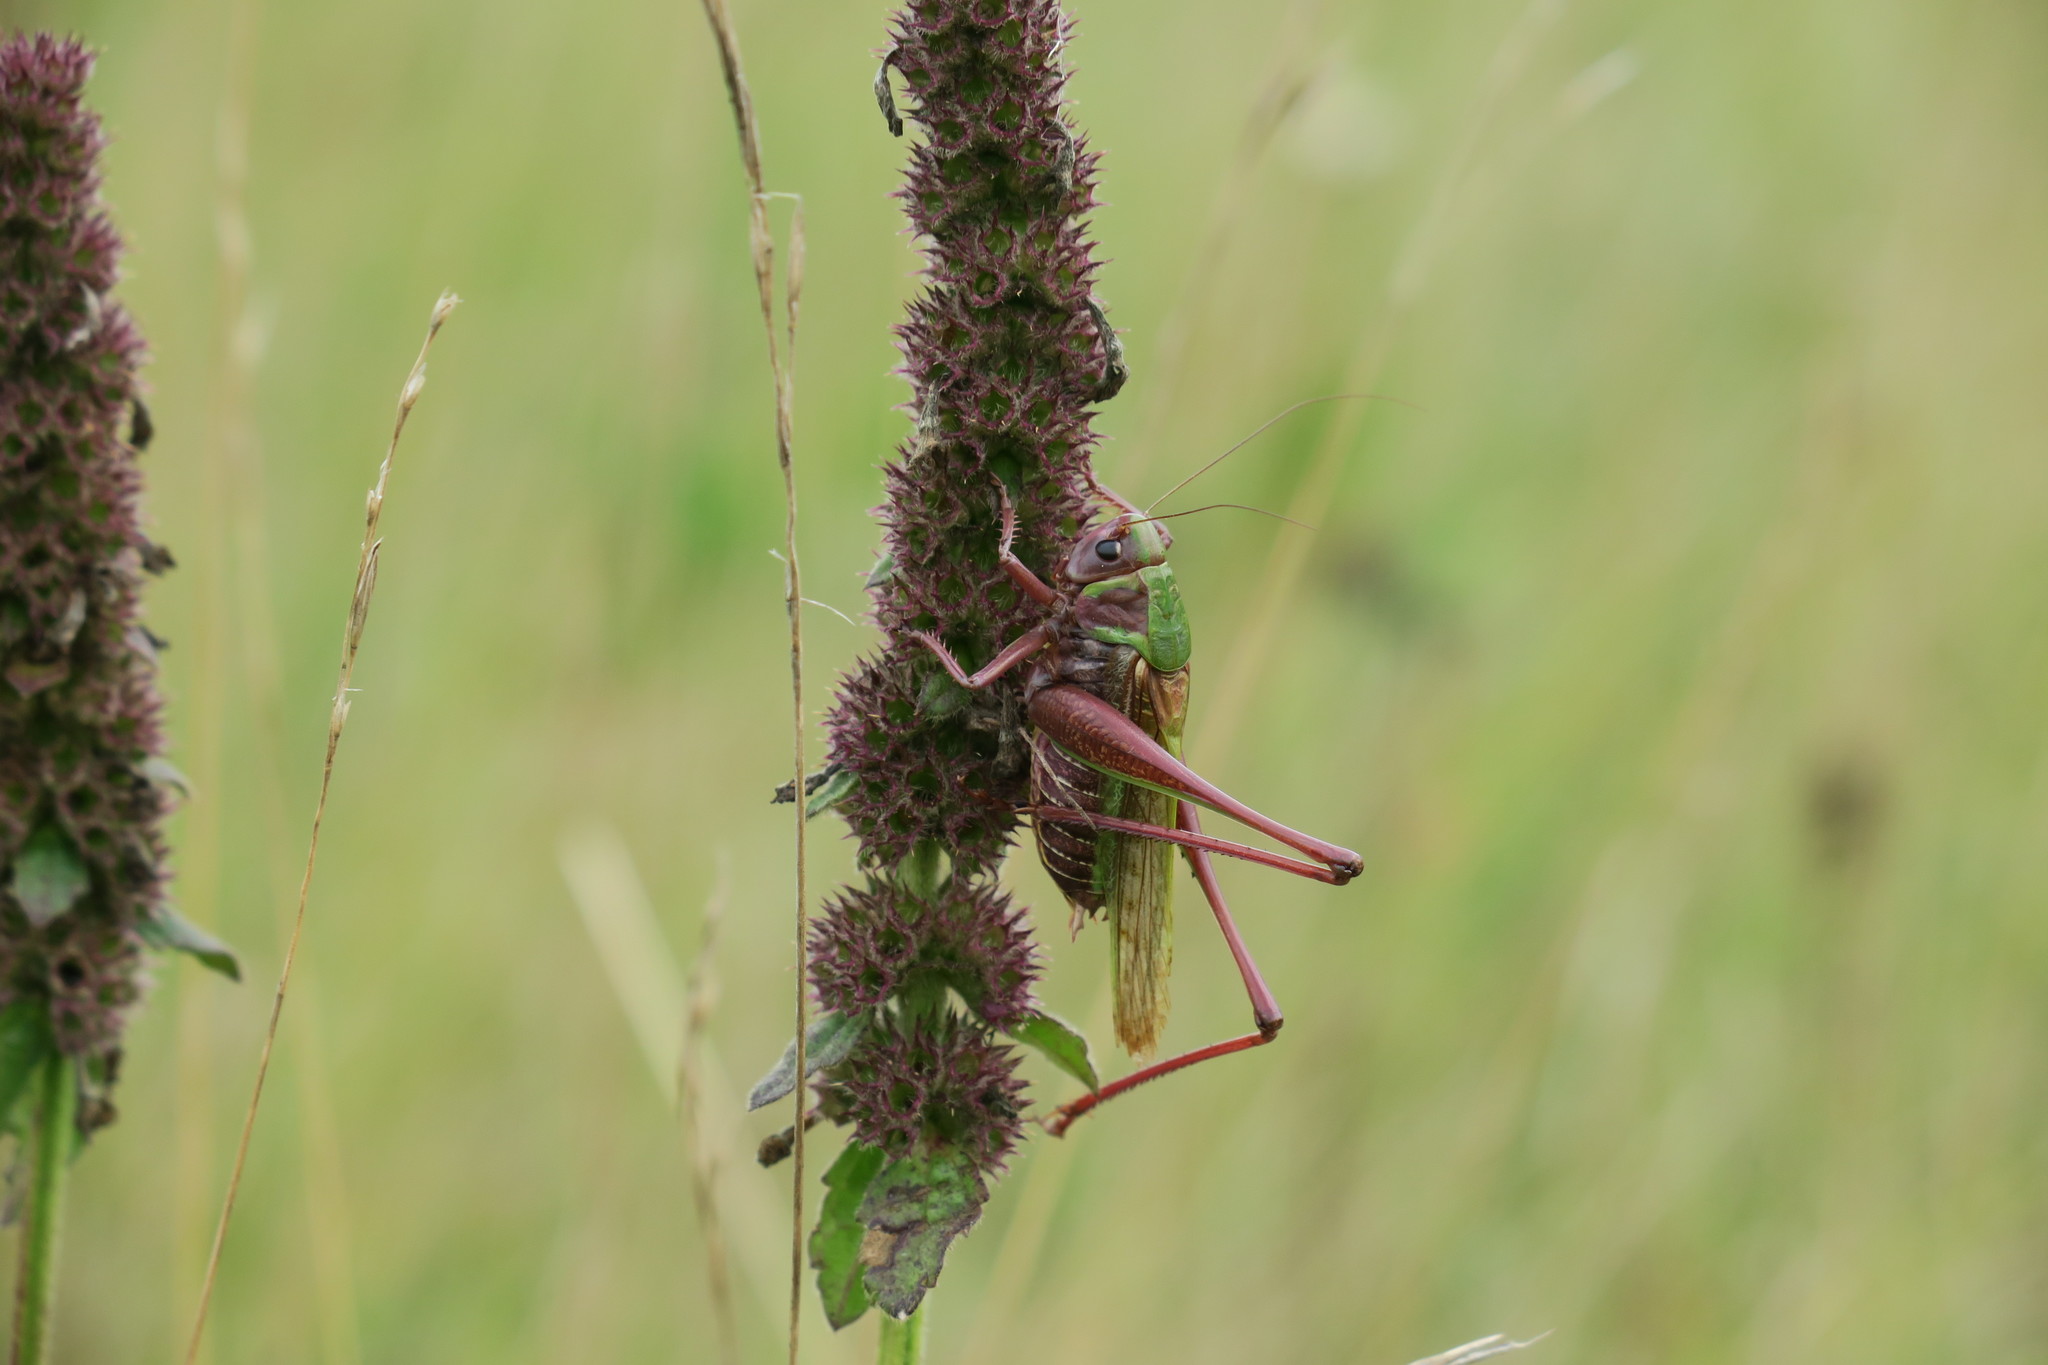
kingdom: Animalia
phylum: Arthropoda
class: Insecta
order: Orthoptera
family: Tettigoniidae
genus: Decticus
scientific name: Decticus verrucivorus
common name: Wart-biter
